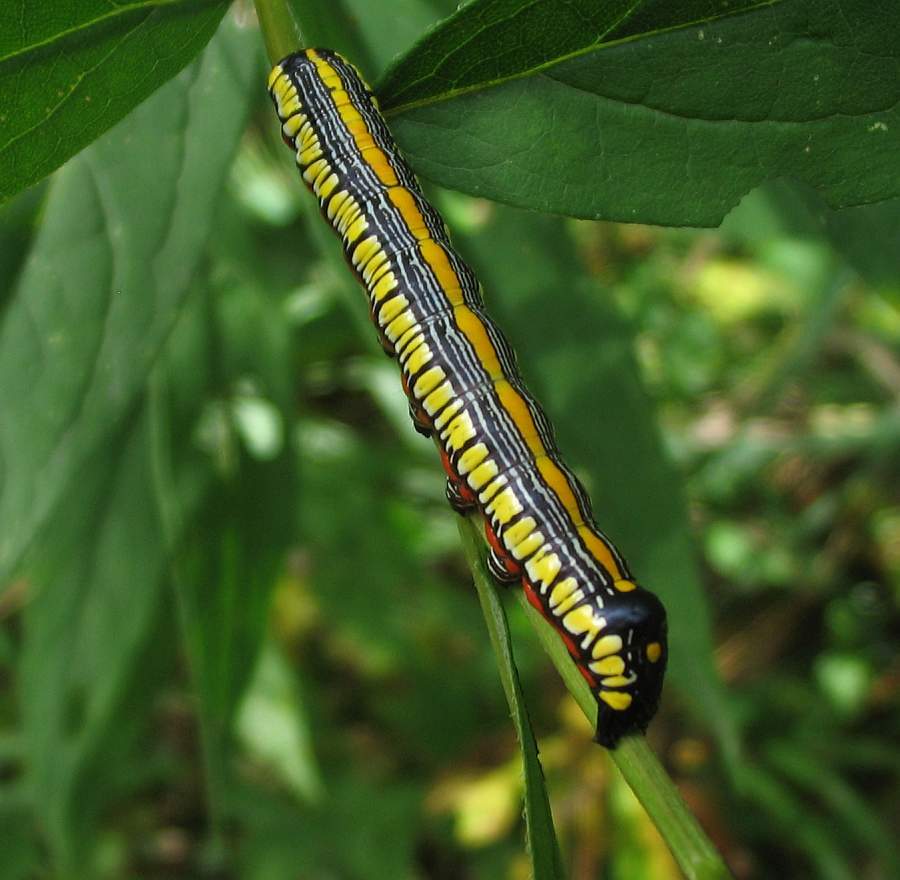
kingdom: Animalia
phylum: Arthropoda
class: Insecta
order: Lepidoptera
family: Noctuidae
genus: Cucullia
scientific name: Cucullia convexipennis
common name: Brown-hooded owlet
